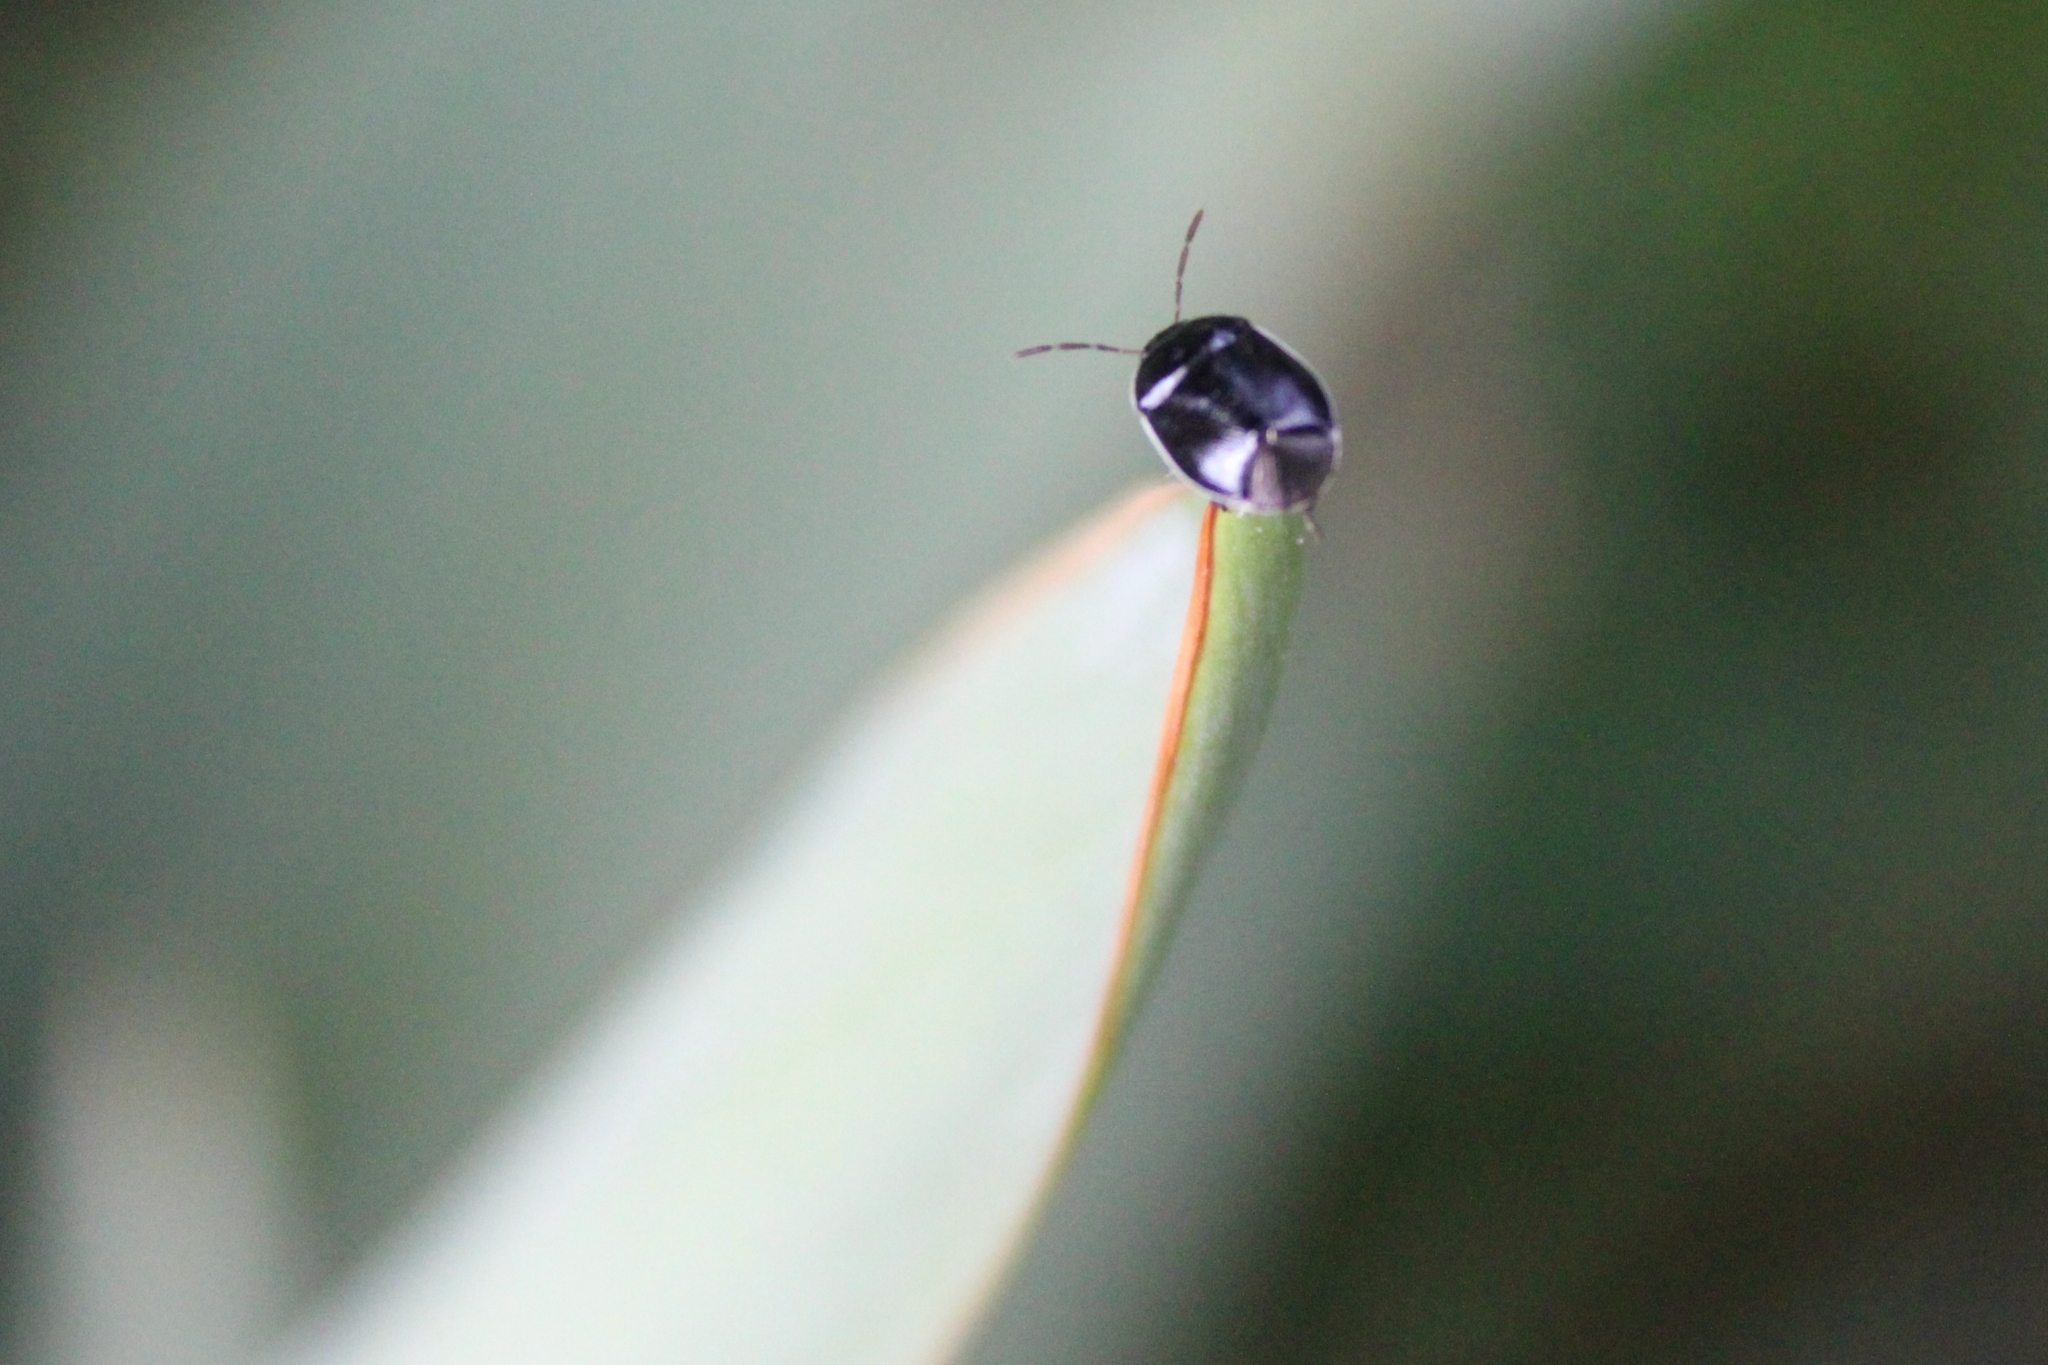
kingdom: Animalia
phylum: Arthropoda
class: Insecta
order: Hemiptera
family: Cydnidae
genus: Sehirus
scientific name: Sehirus cinctus
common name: White-margined burrower bug
